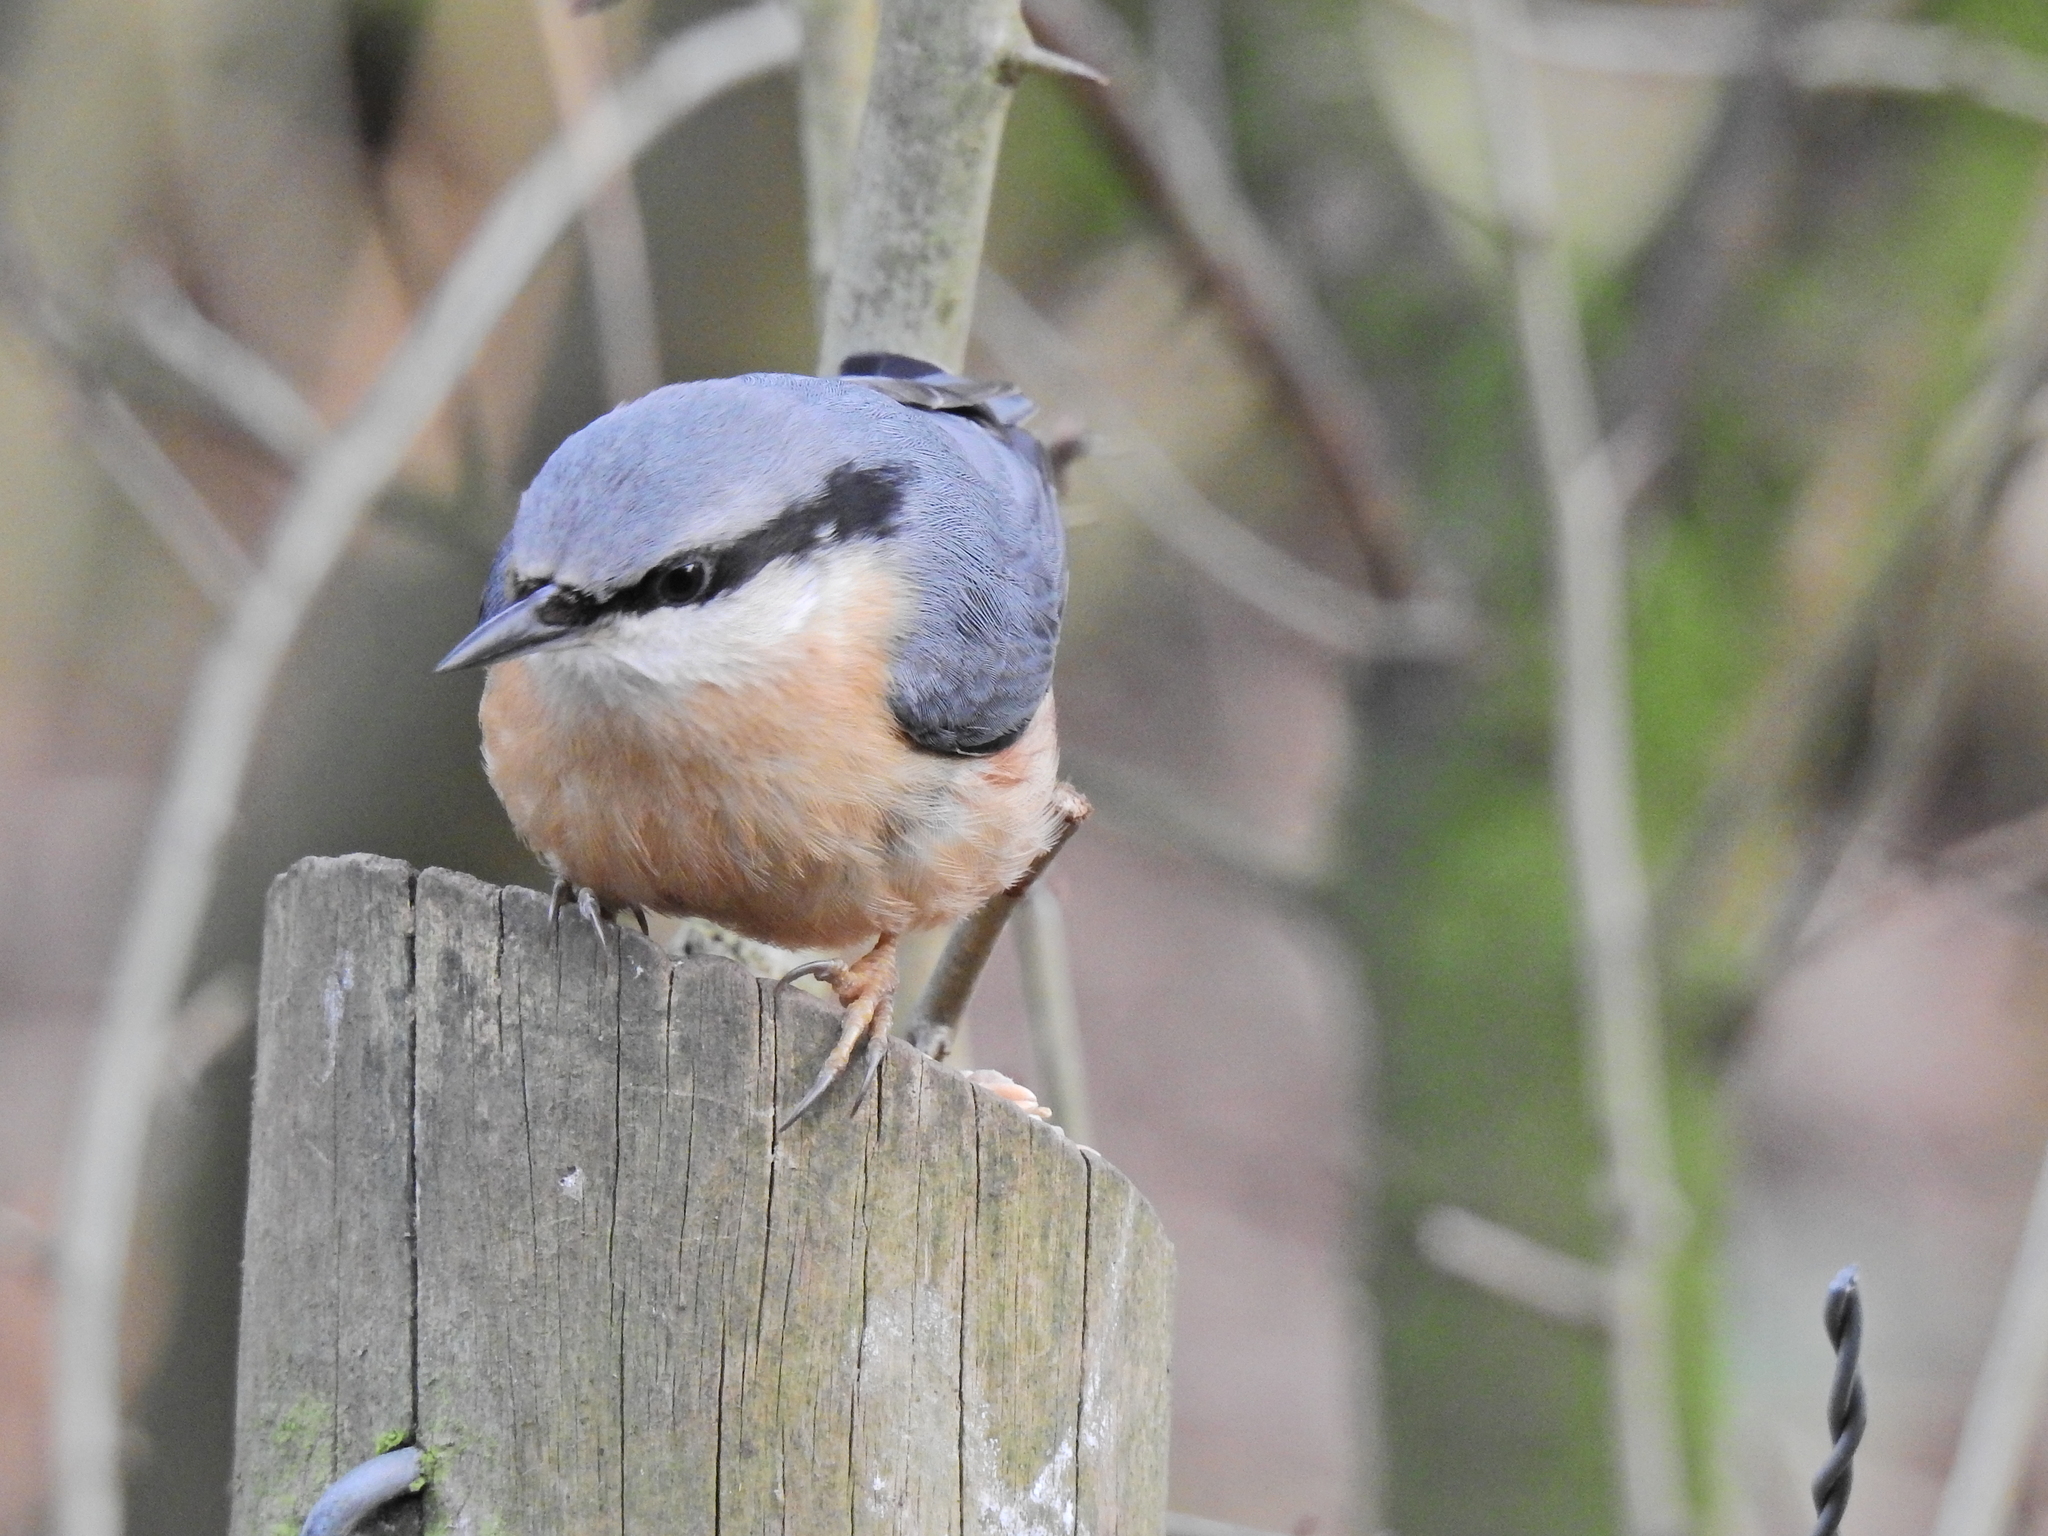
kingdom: Animalia
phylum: Chordata
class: Aves
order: Passeriformes
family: Sittidae
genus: Sitta
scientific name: Sitta europaea
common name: Eurasian nuthatch
